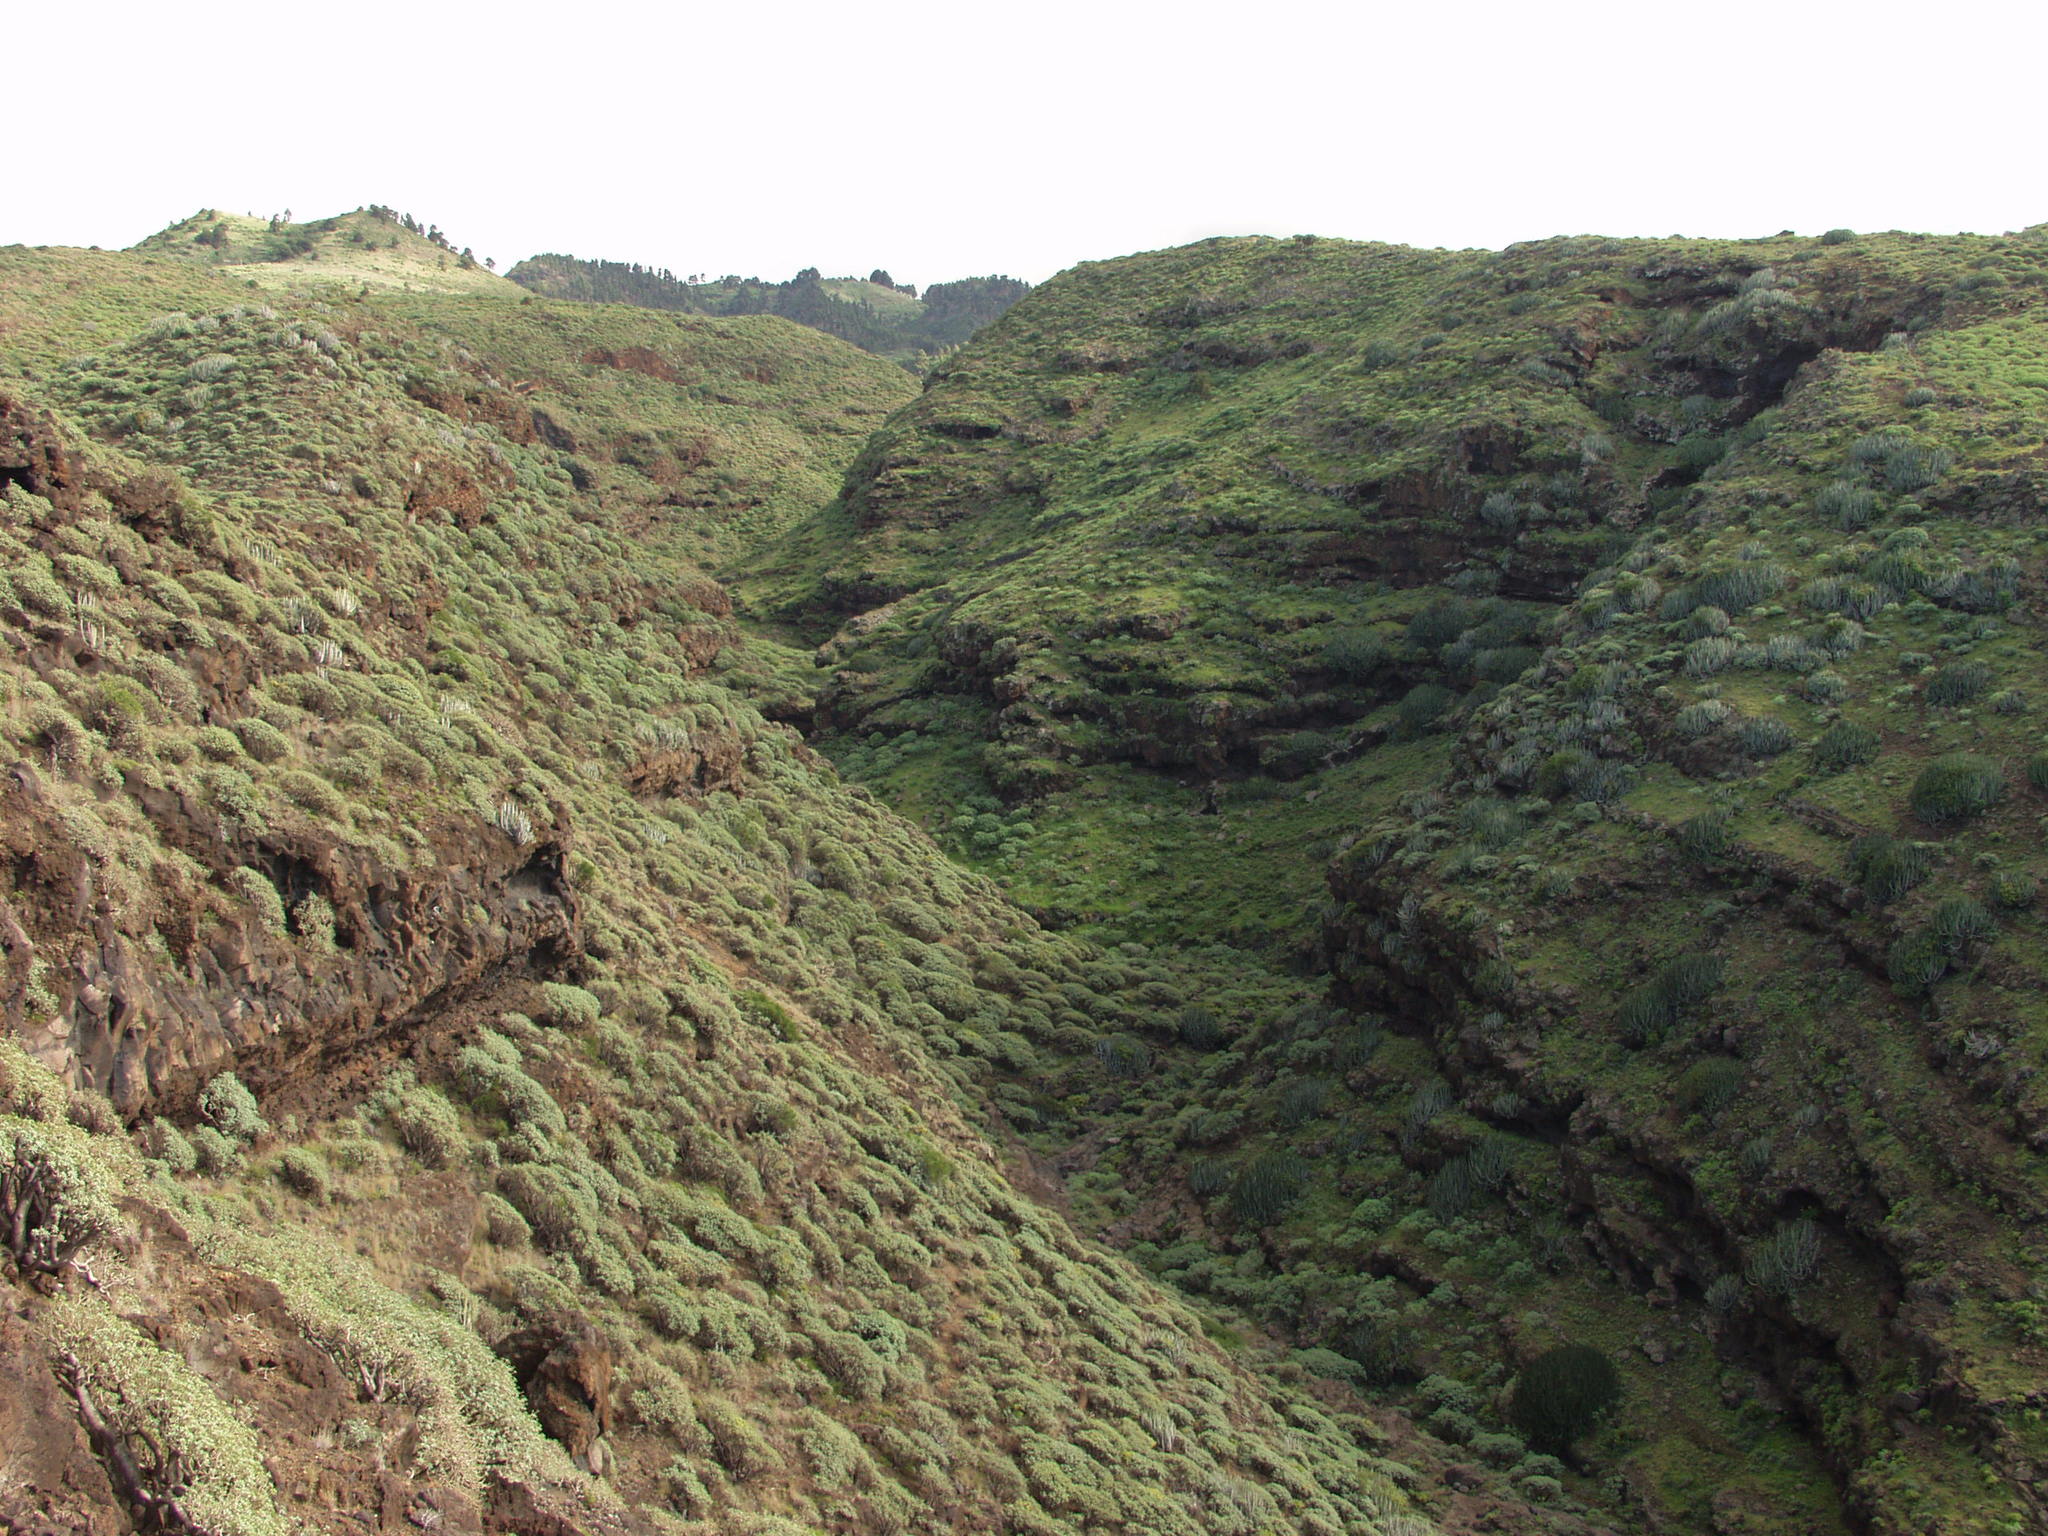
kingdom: Plantae
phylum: Tracheophyta
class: Magnoliopsida
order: Malpighiales
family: Euphorbiaceae
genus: Euphorbia
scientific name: Euphorbia balsamifera
